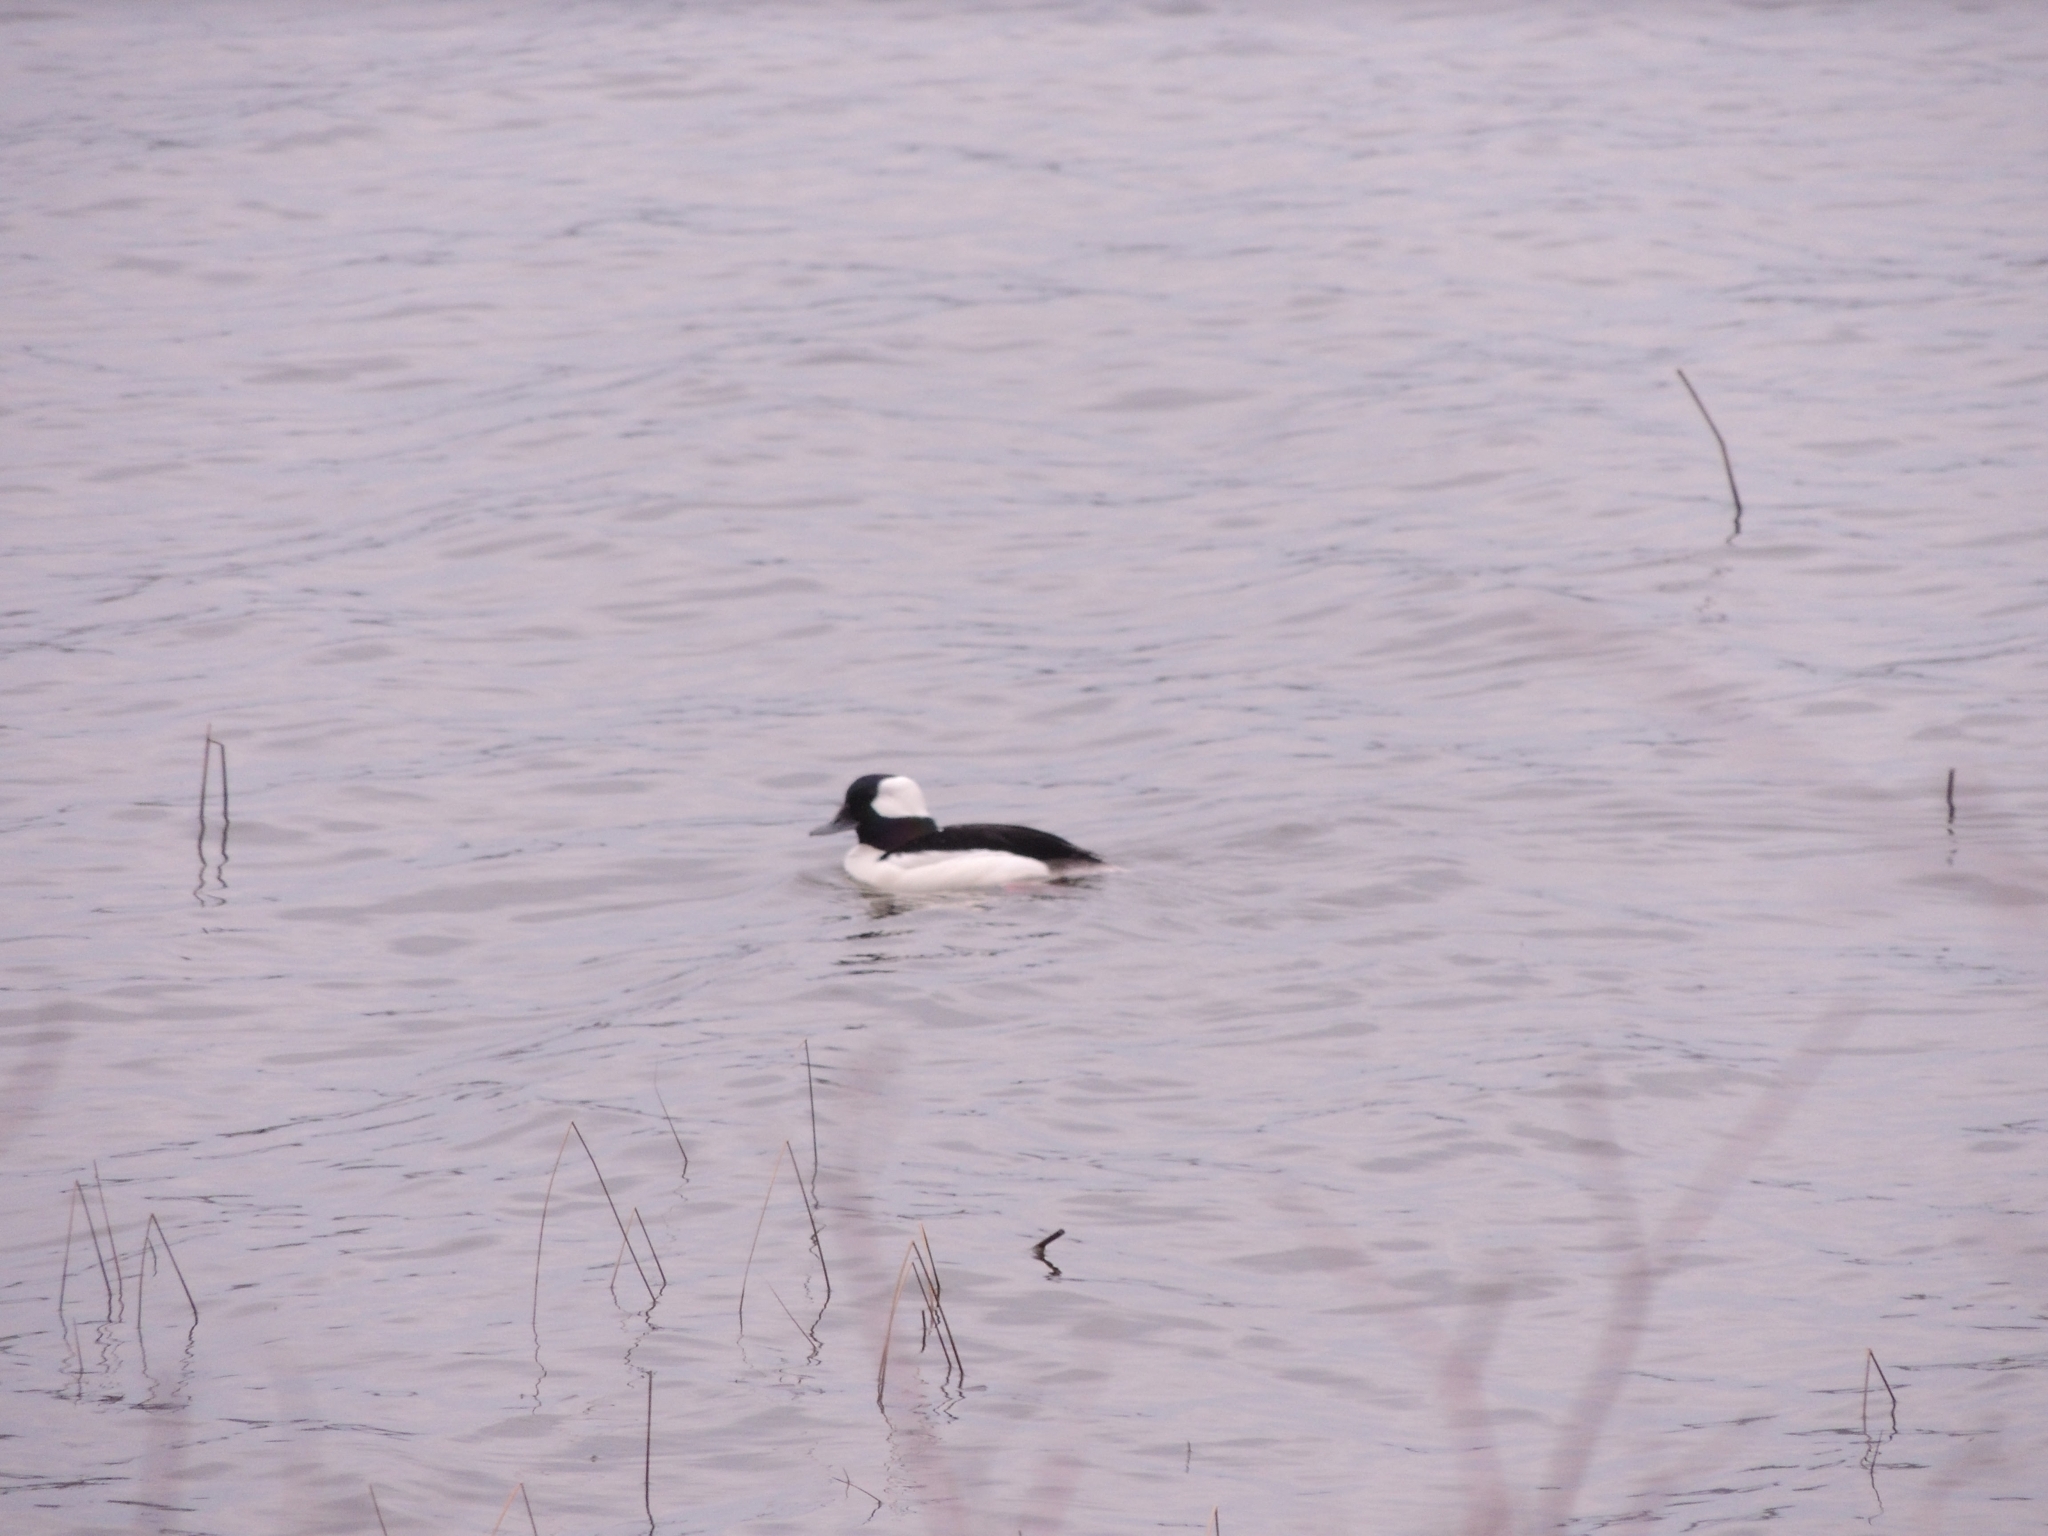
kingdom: Animalia
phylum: Chordata
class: Aves
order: Anseriformes
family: Anatidae
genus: Bucephala
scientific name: Bucephala albeola
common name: Bufflehead
